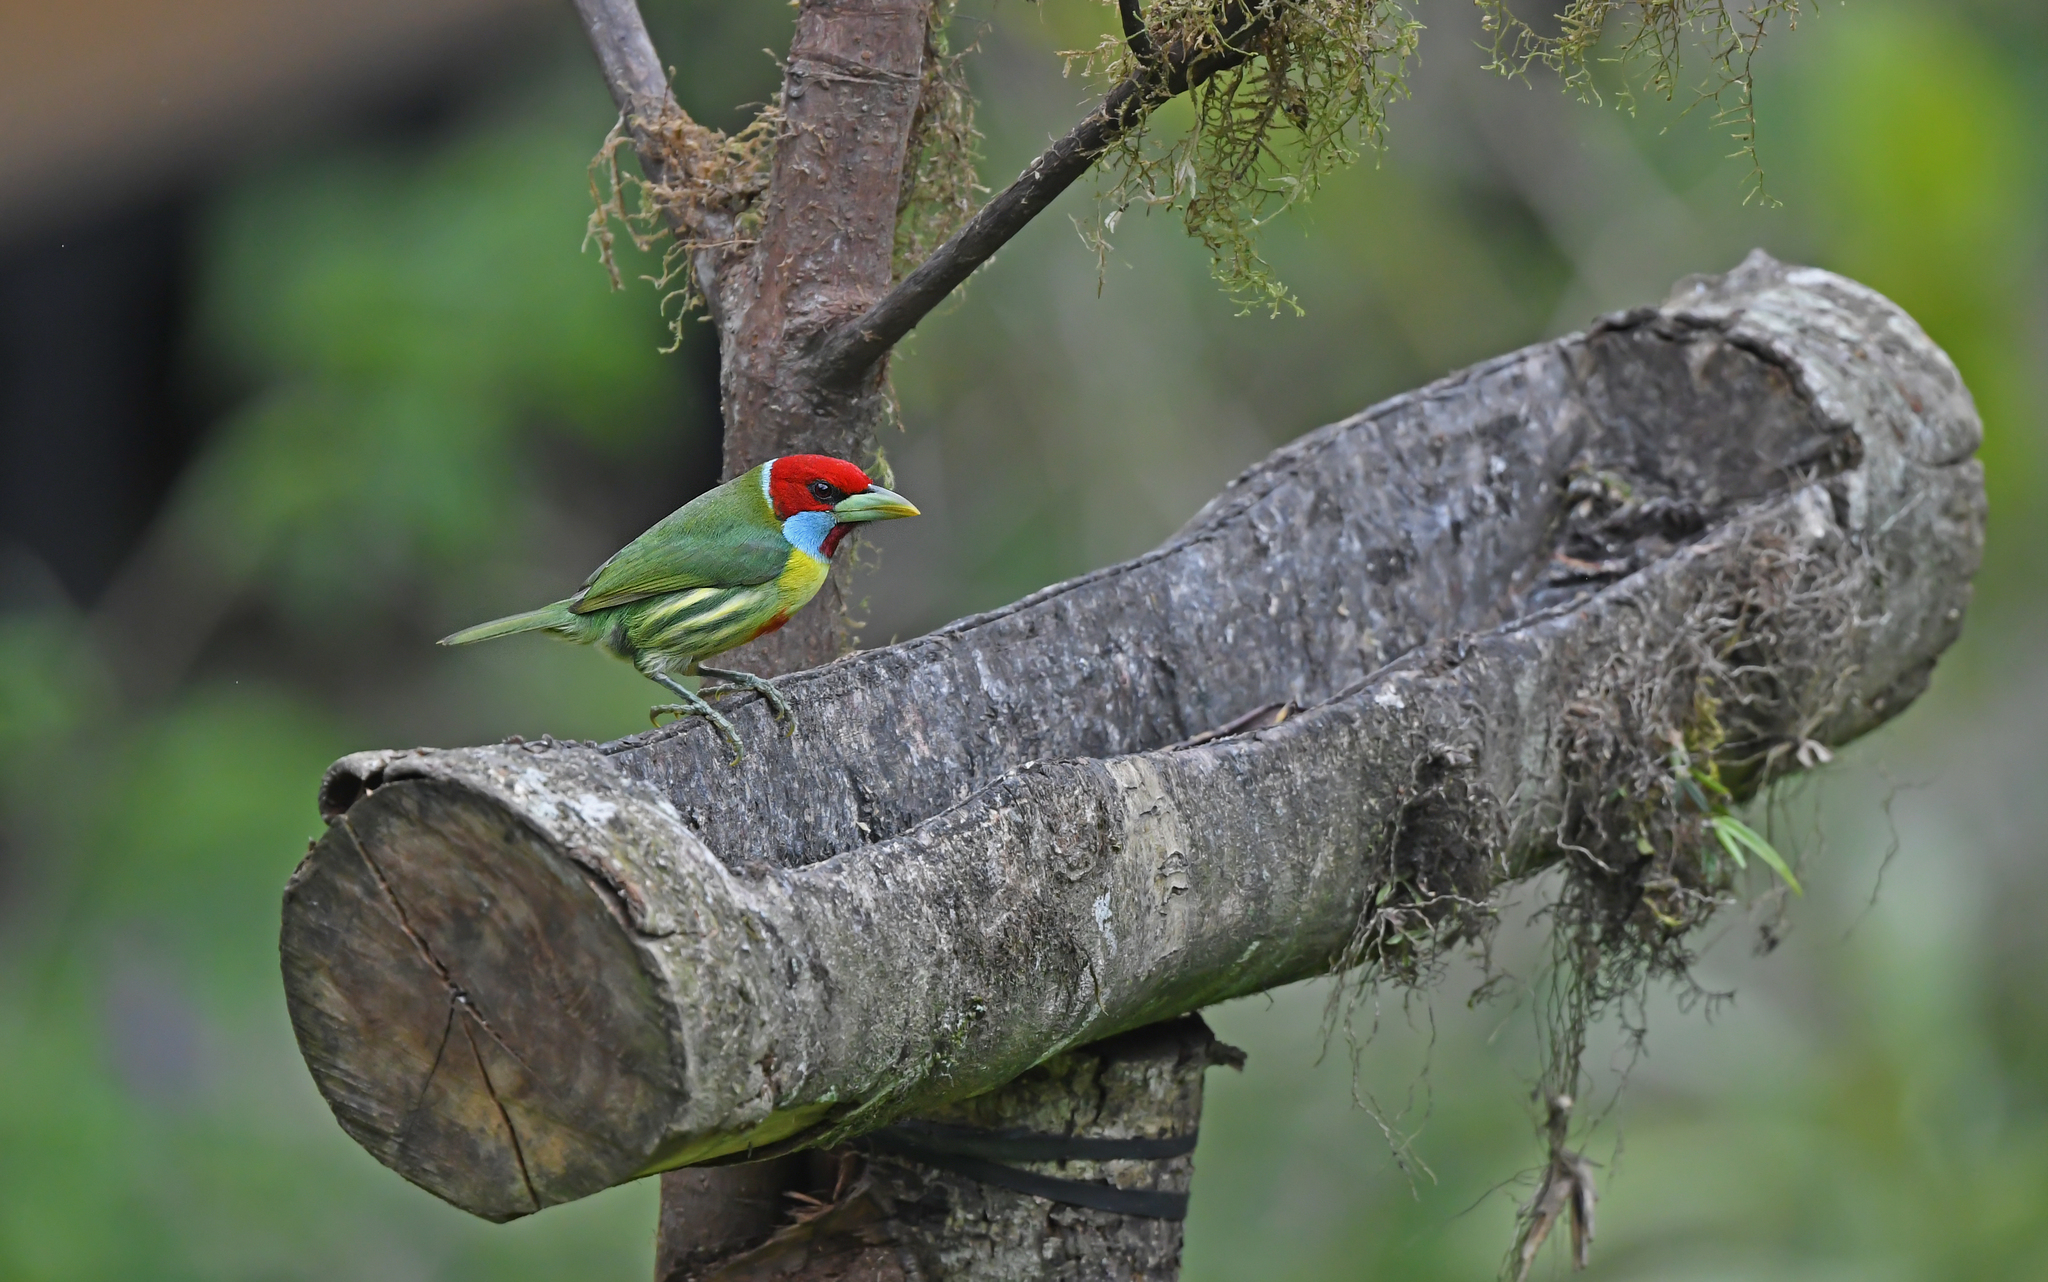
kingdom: Animalia
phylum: Chordata
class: Aves
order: Piciformes
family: Capitonidae
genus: Eubucco
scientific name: Eubucco versicolor
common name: Versicolored barbet
